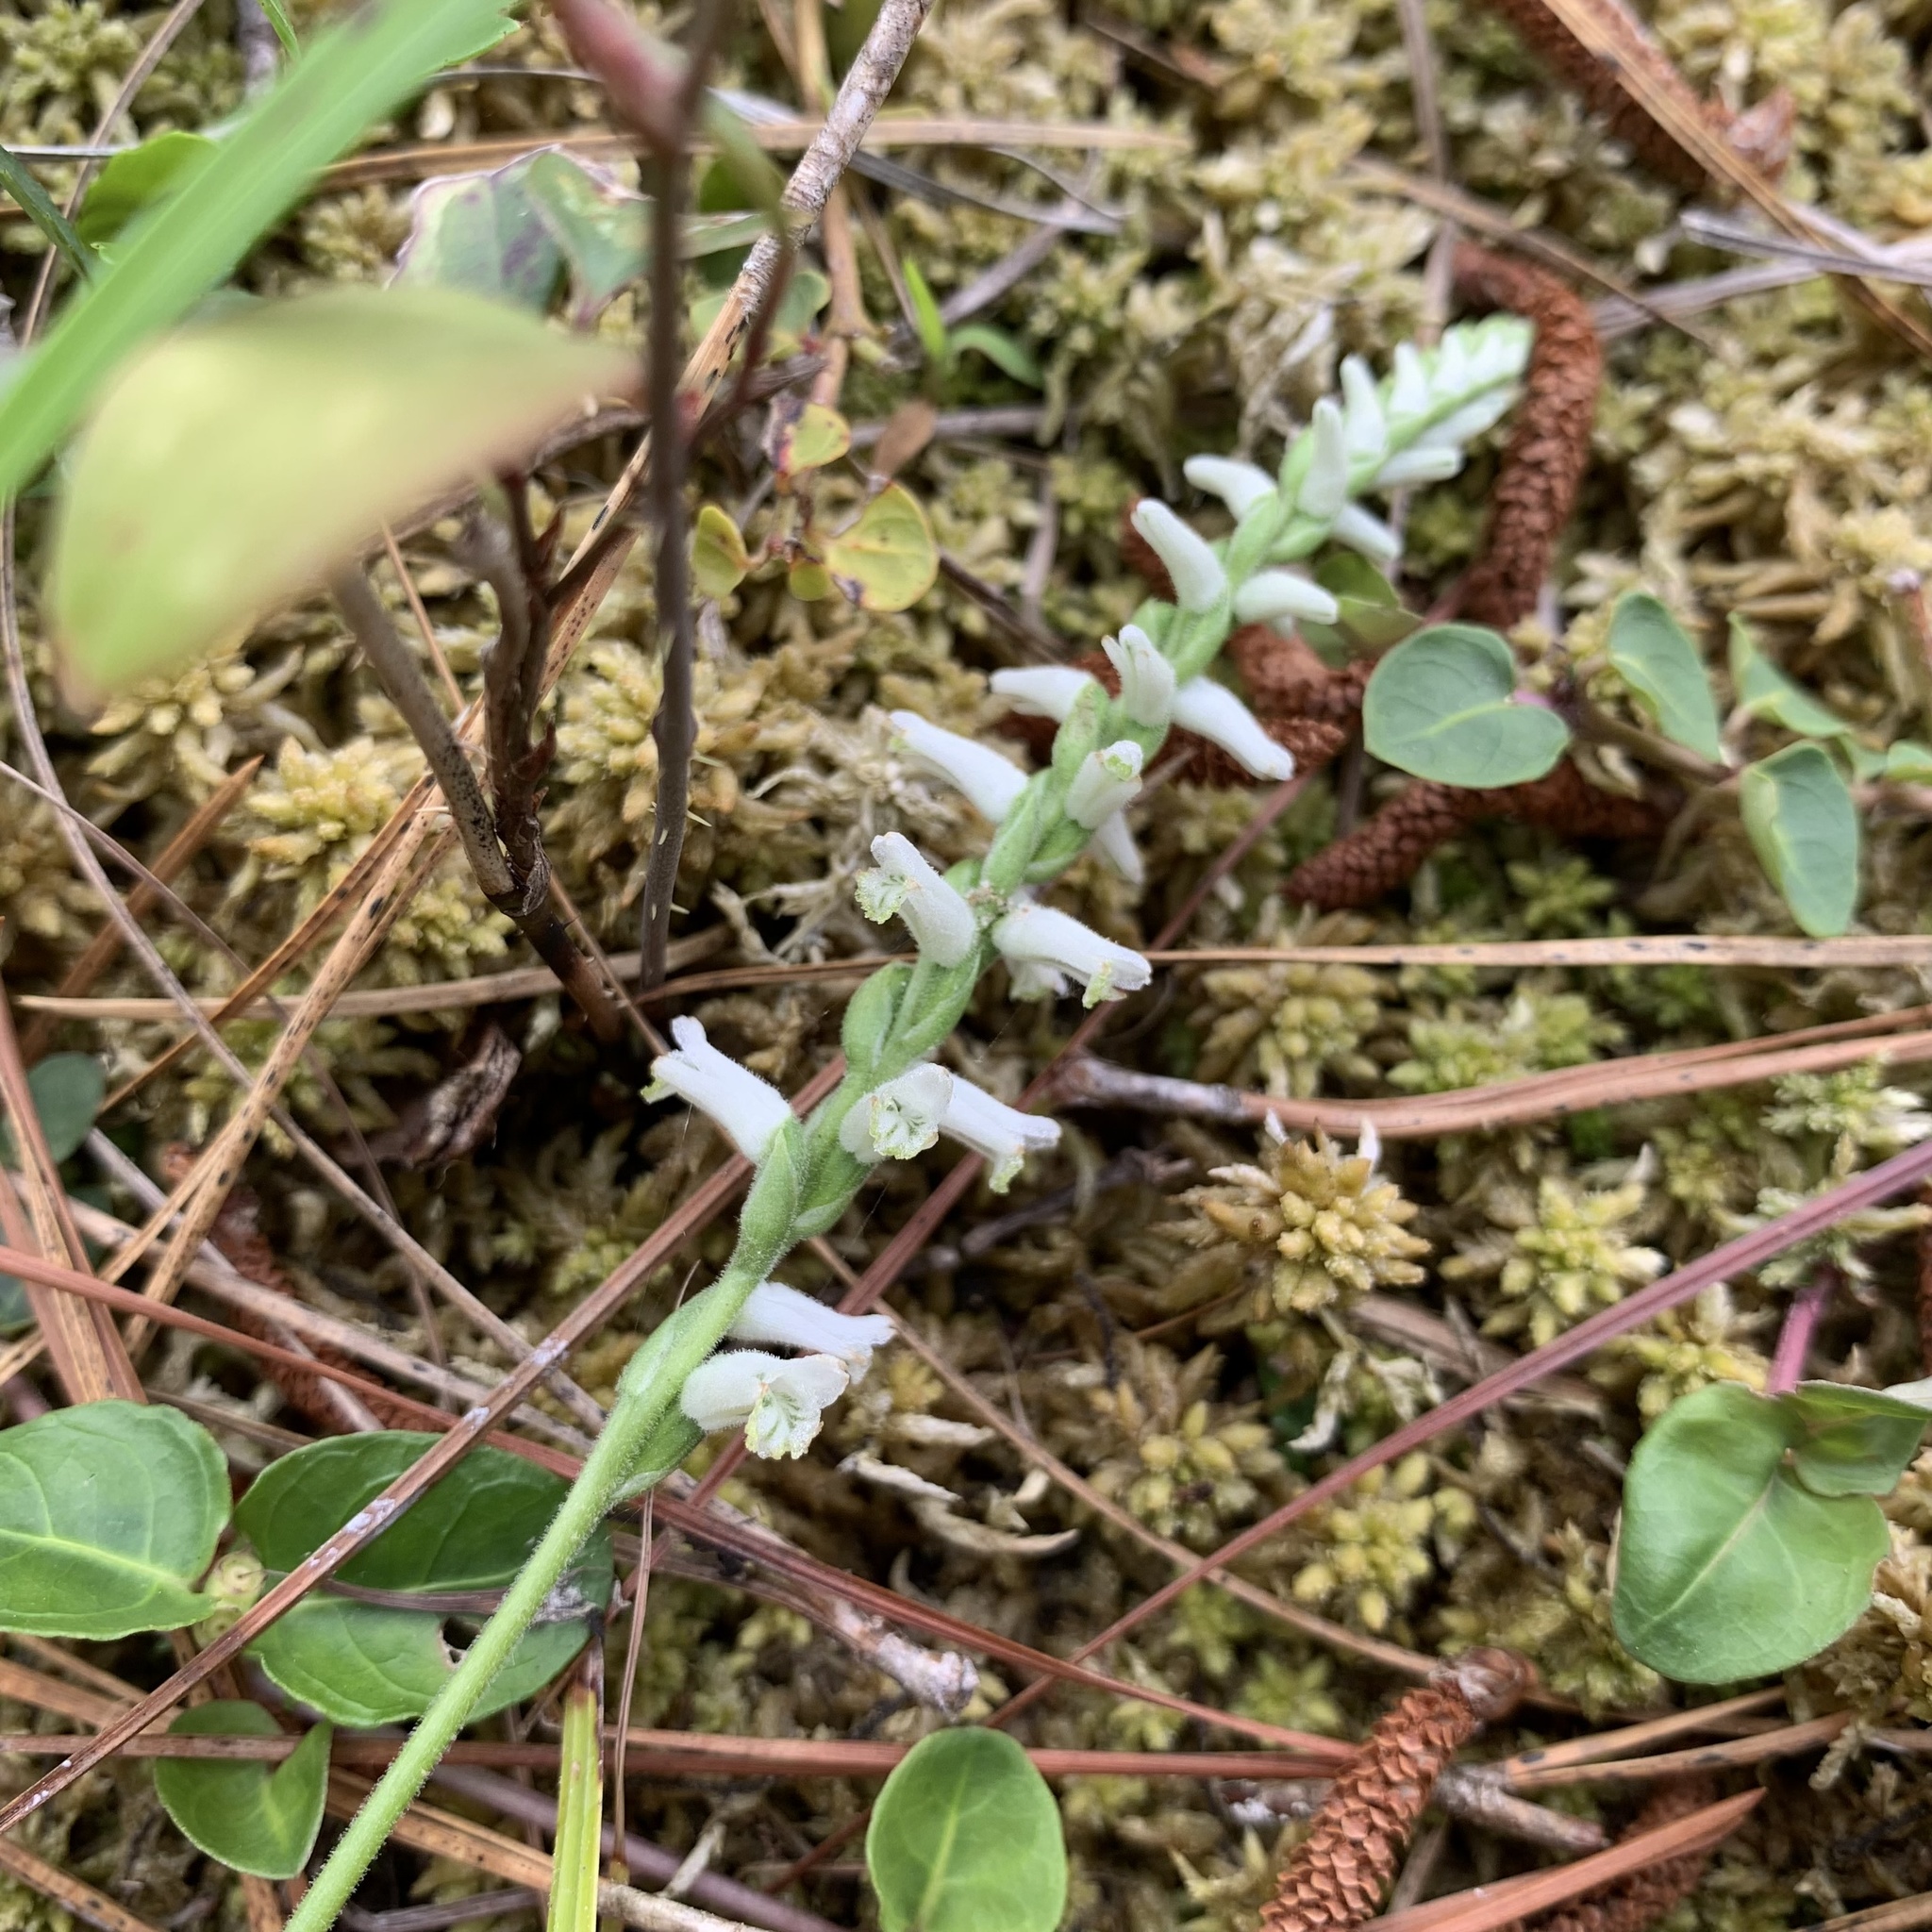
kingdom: Plantae
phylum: Tracheophyta
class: Liliopsida
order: Asparagales
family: Orchidaceae
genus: Spiranthes
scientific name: Spiranthes praecox
